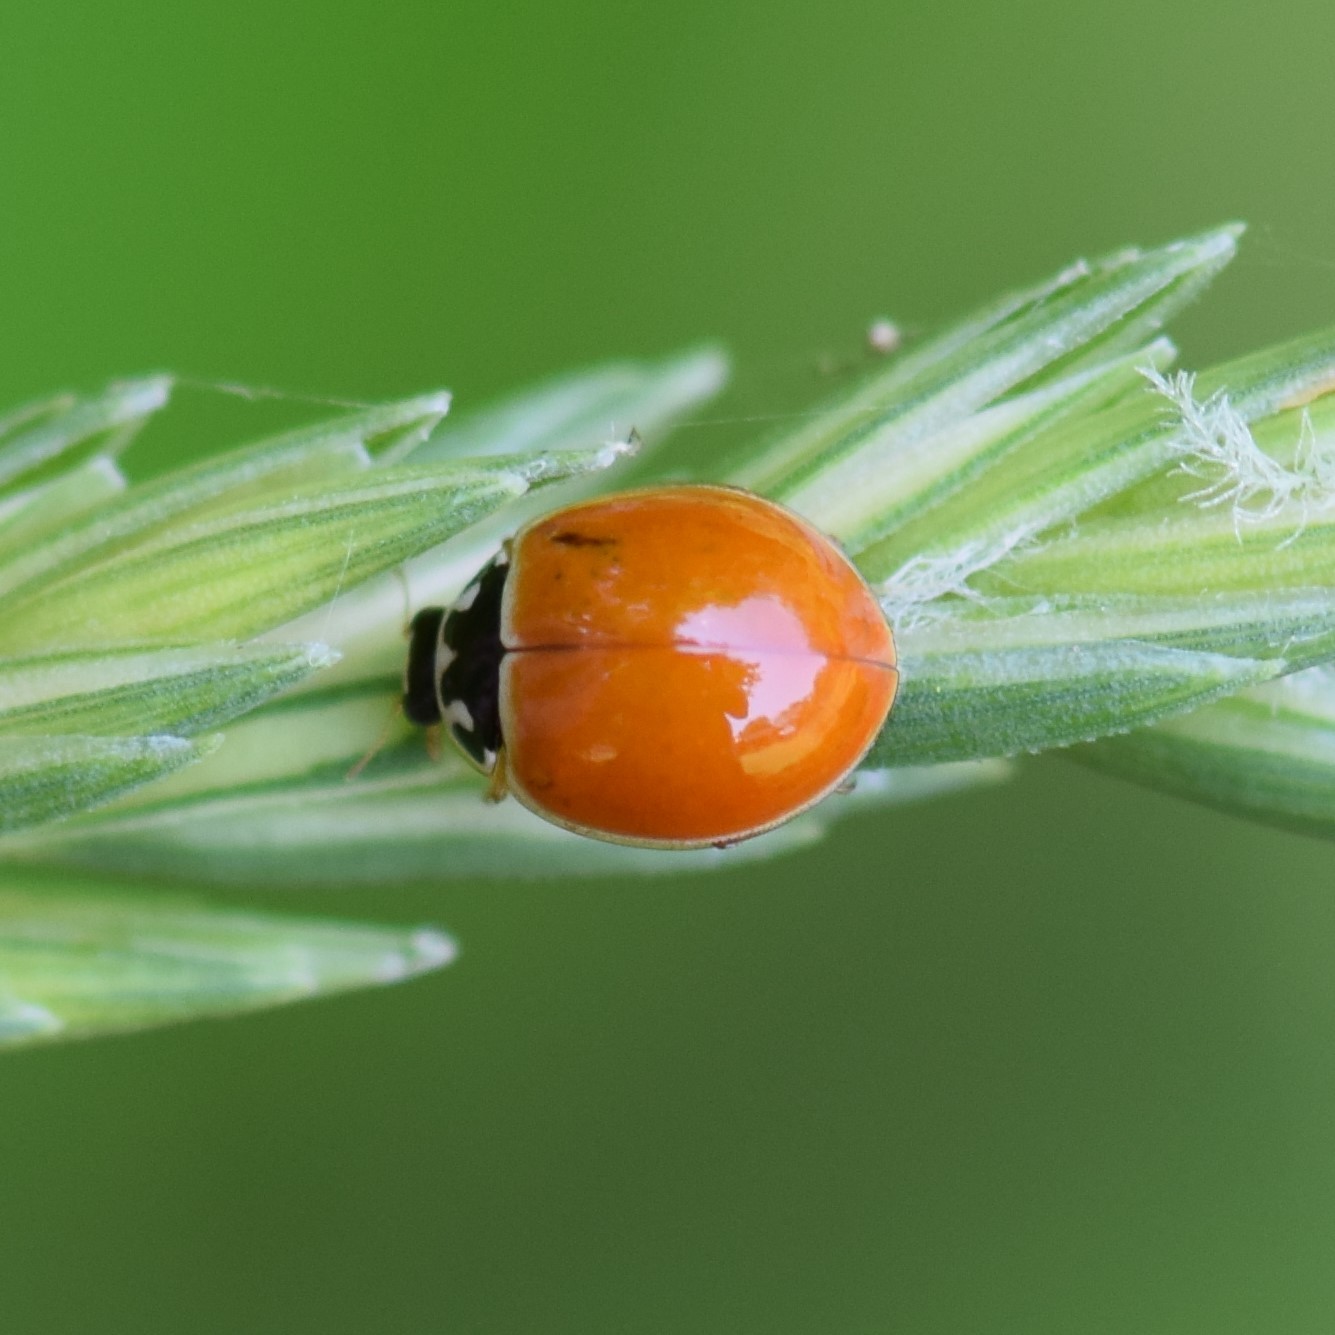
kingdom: Animalia
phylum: Arthropoda
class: Insecta
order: Coleoptera
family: Coccinellidae
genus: Cycloneda
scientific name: Cycloneda munda
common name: Polished lady beetle
